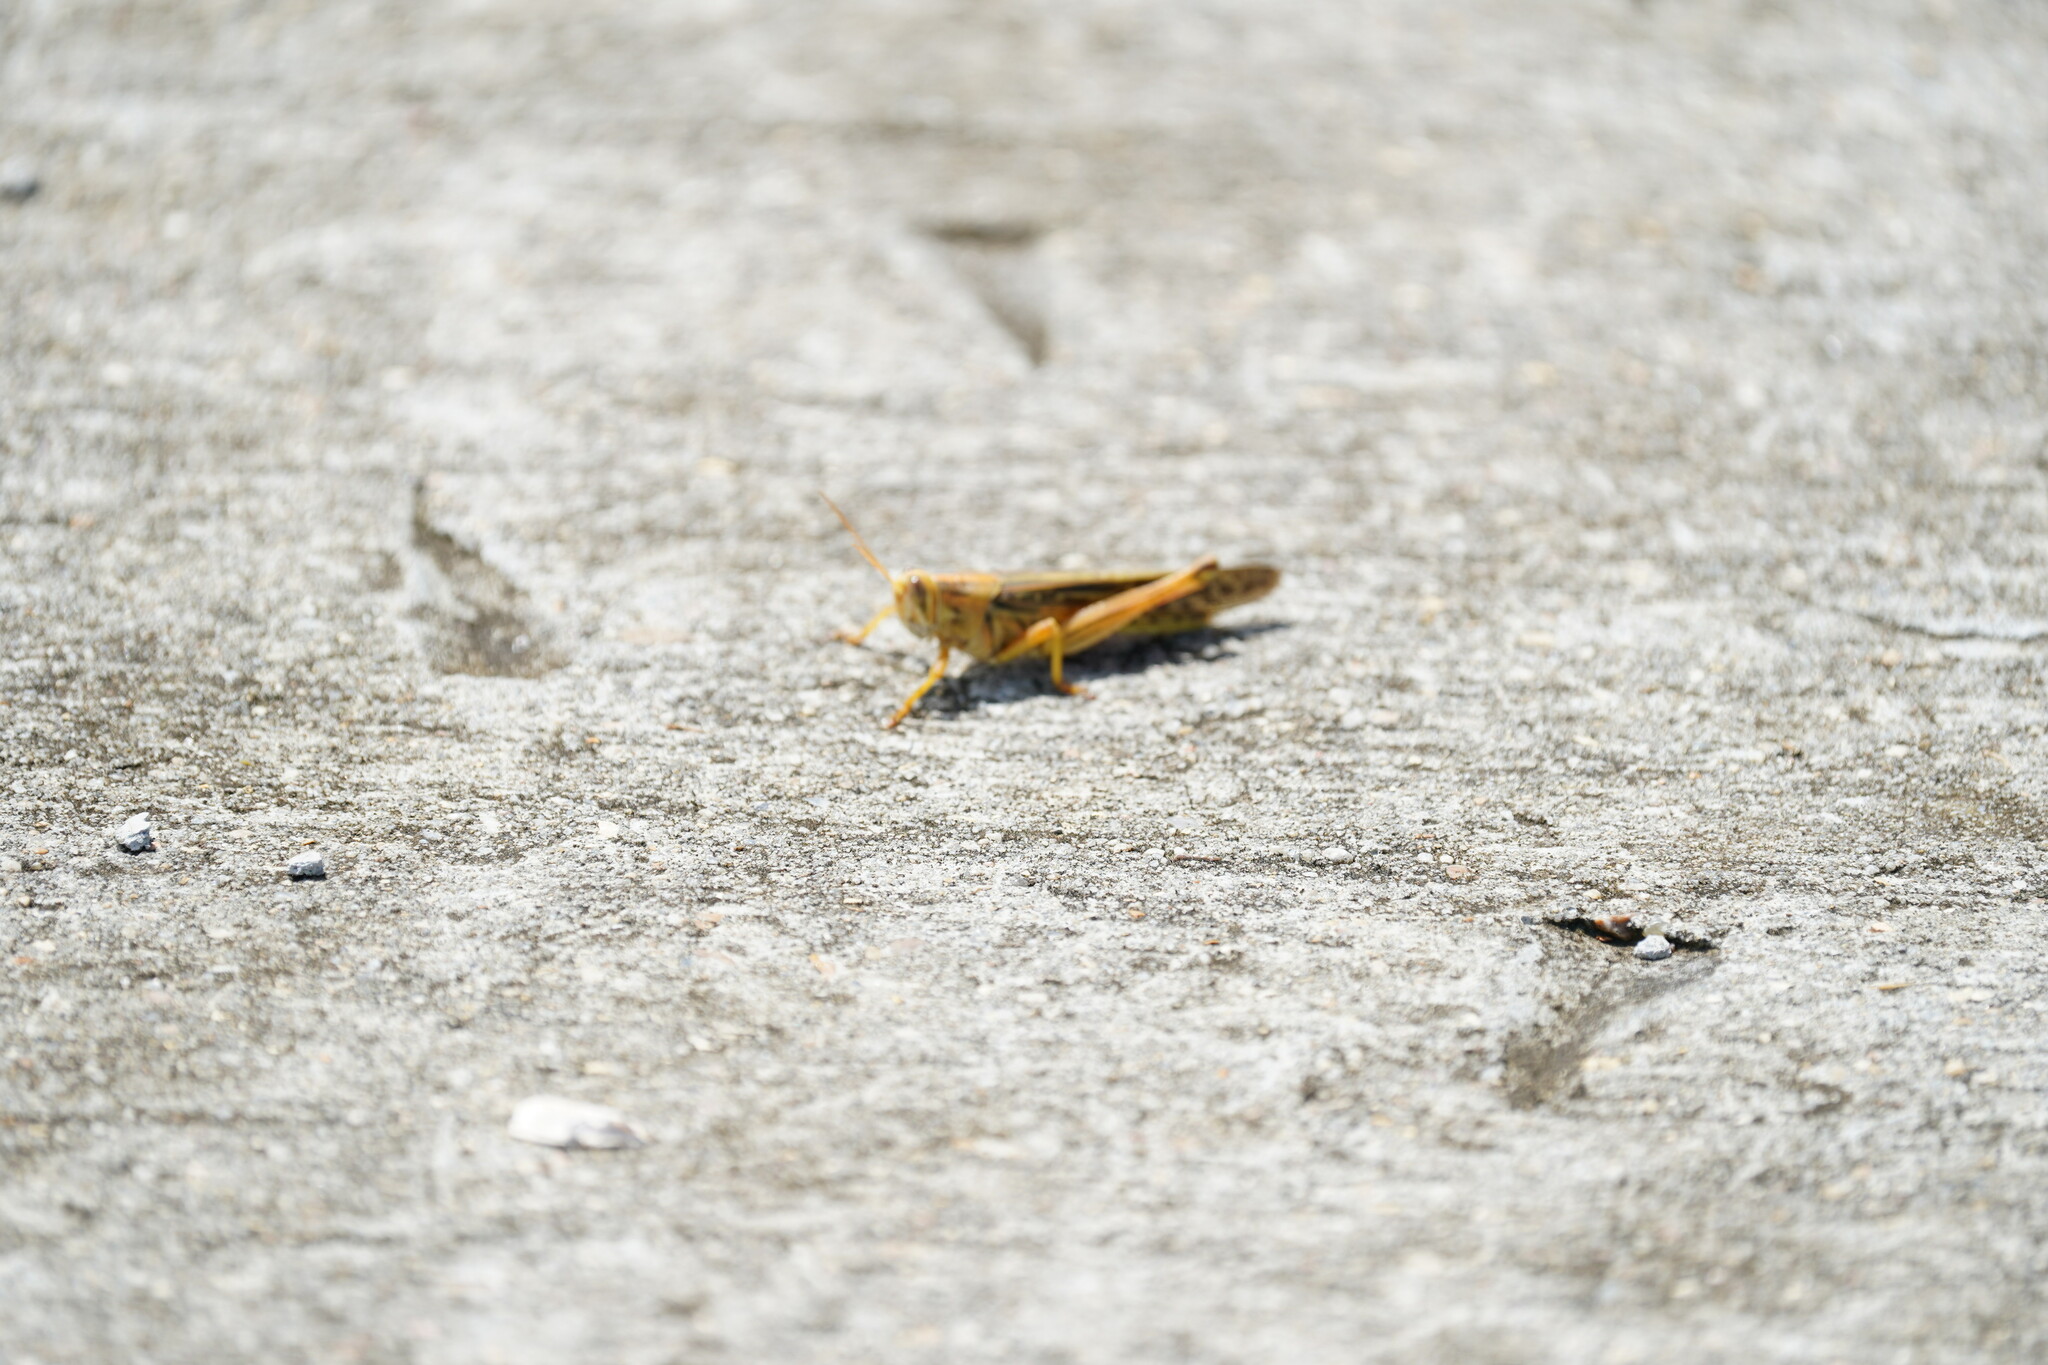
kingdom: Animalia
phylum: Arthropoda
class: Insecta
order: Orthoptera
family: Acrididae
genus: Schistocerca
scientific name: Schistocerca americana
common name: American bird locust
